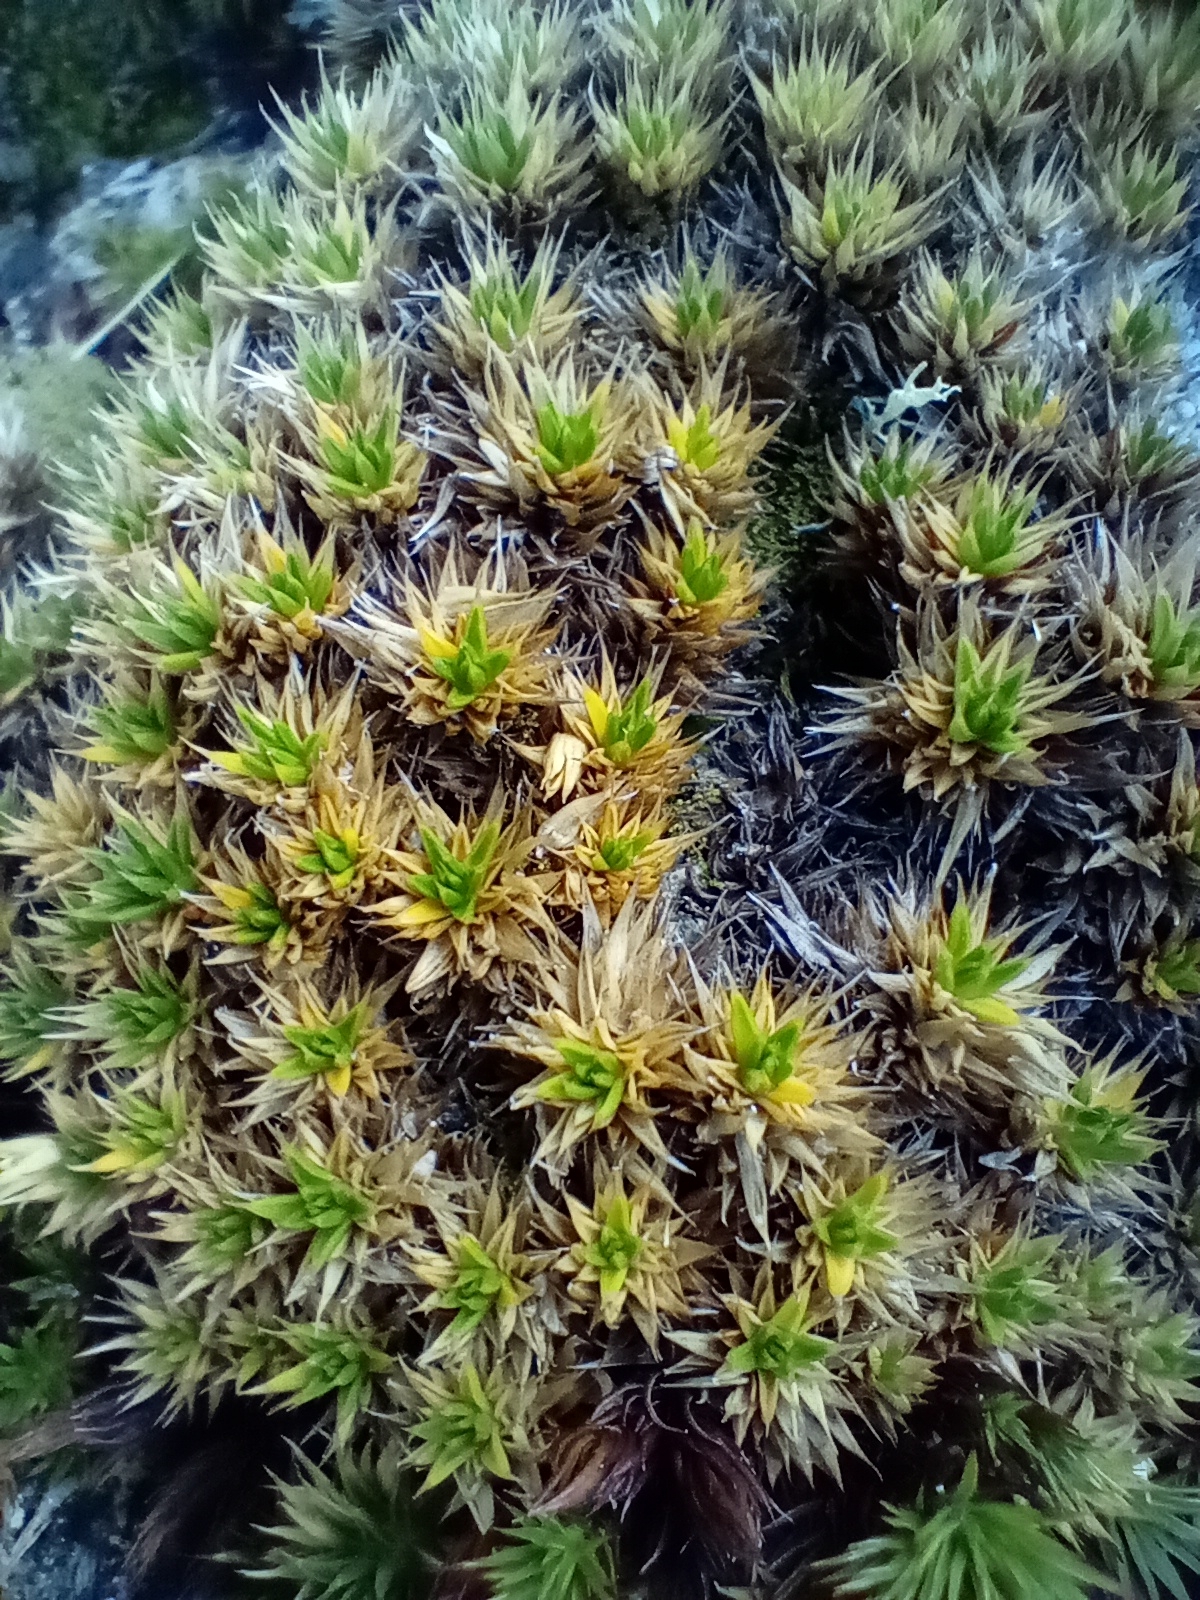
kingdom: Plantae
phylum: Tracheophyta
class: Magnoliopsida
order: Caryophyllales
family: Caryophyllaceae
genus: Colobanthus
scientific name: Colobanthus acicularis
